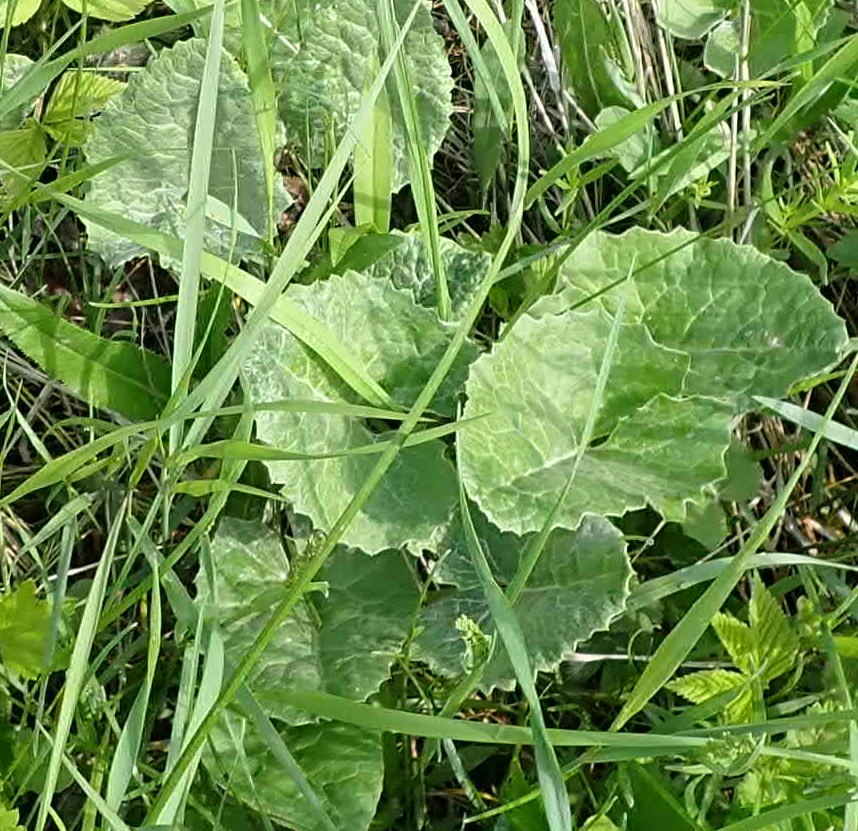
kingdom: Plantae
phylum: Tracheophyta
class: Magnoliopsida
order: Asterales
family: Asteraceae
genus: Petasites
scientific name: Petasites frigidus
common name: Arctic butterbur
